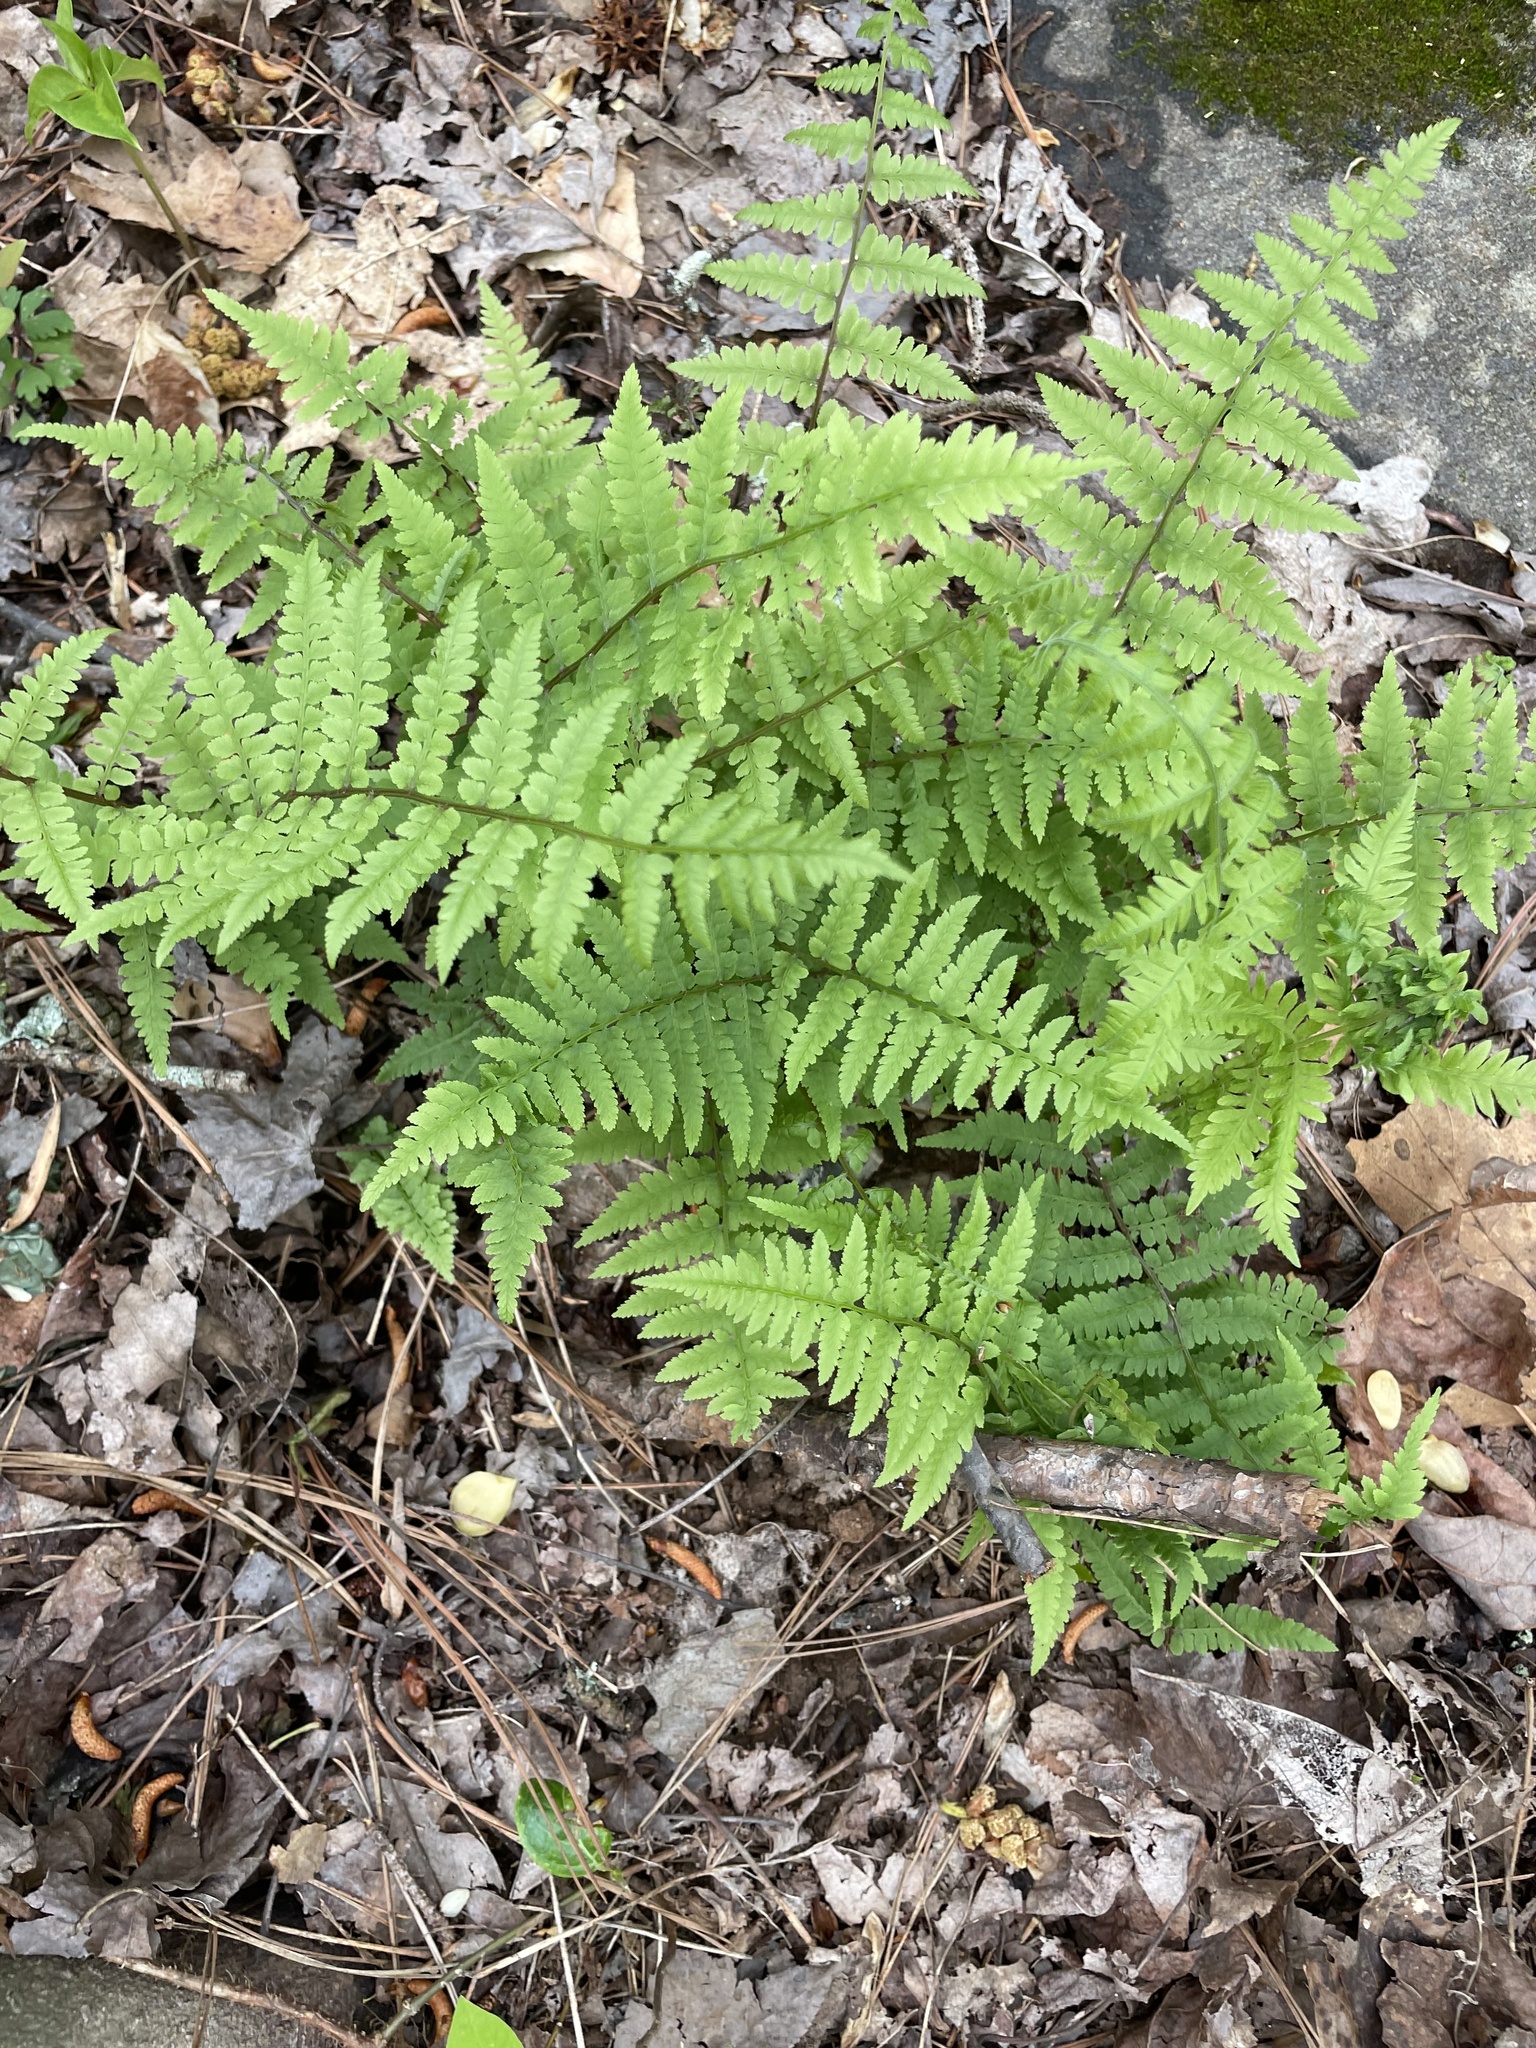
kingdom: Plantae
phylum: Tracheophyta
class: Polypodiopsida
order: Polypodiales
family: Athyriaceae
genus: Athyrium
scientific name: Athyrium asplenioides
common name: Southern lady fern
